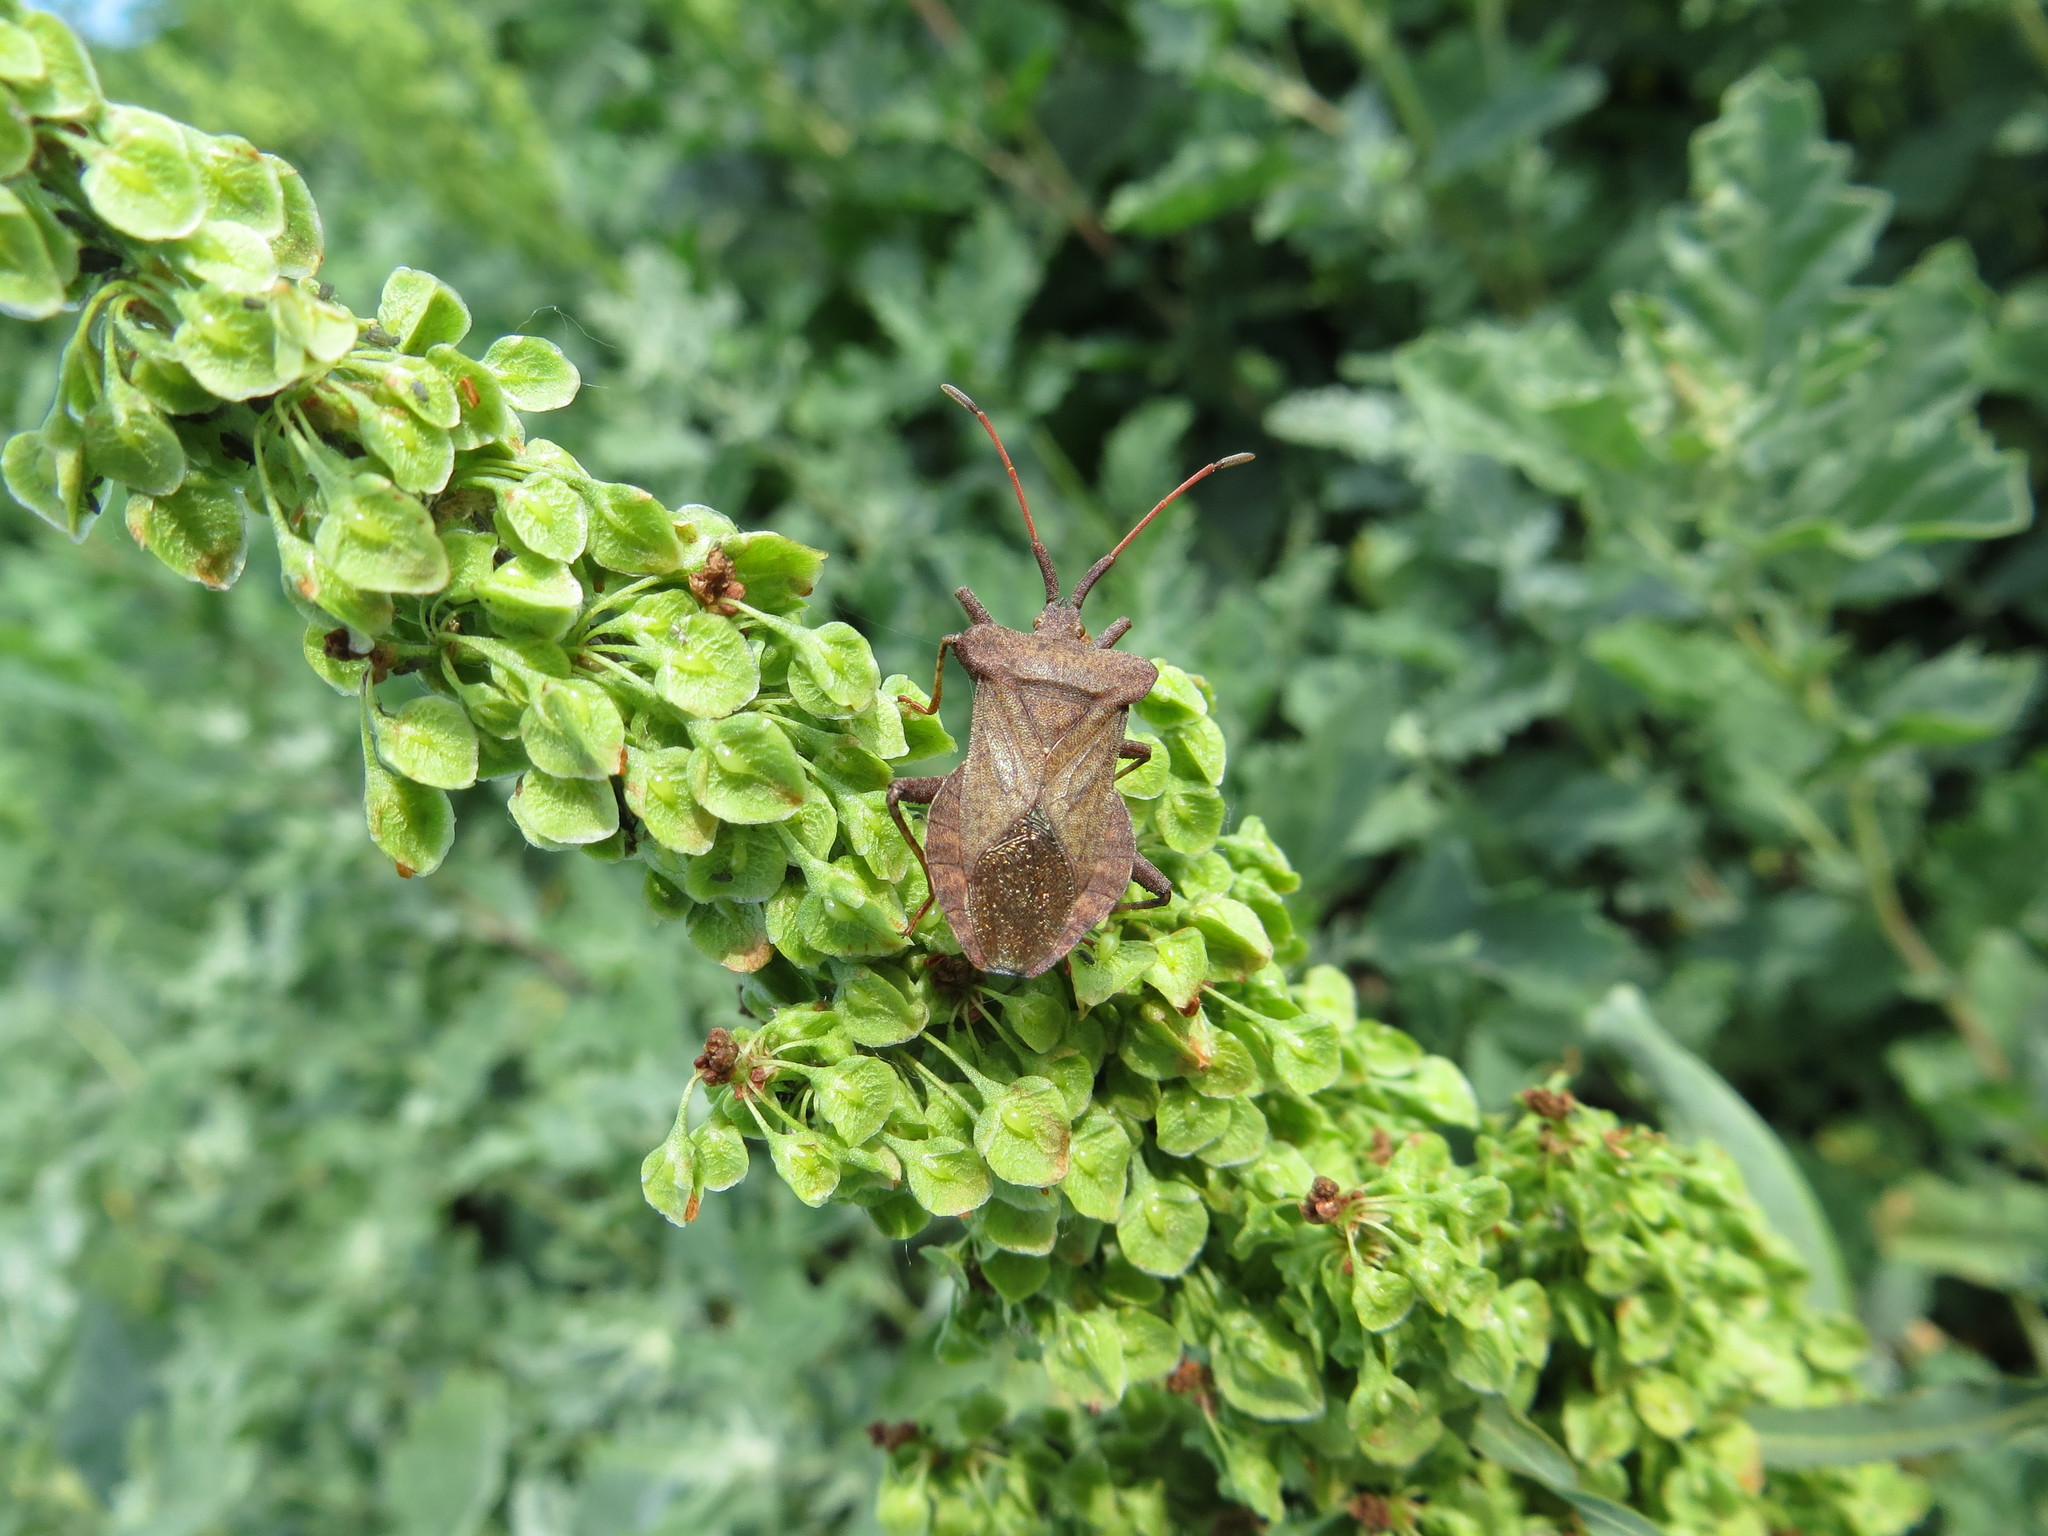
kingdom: Animalia
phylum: Arthropoda
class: Insecta
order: Hemiptera
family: Coreidae
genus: Coreus
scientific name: Coreus marginatus
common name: Dock bug
